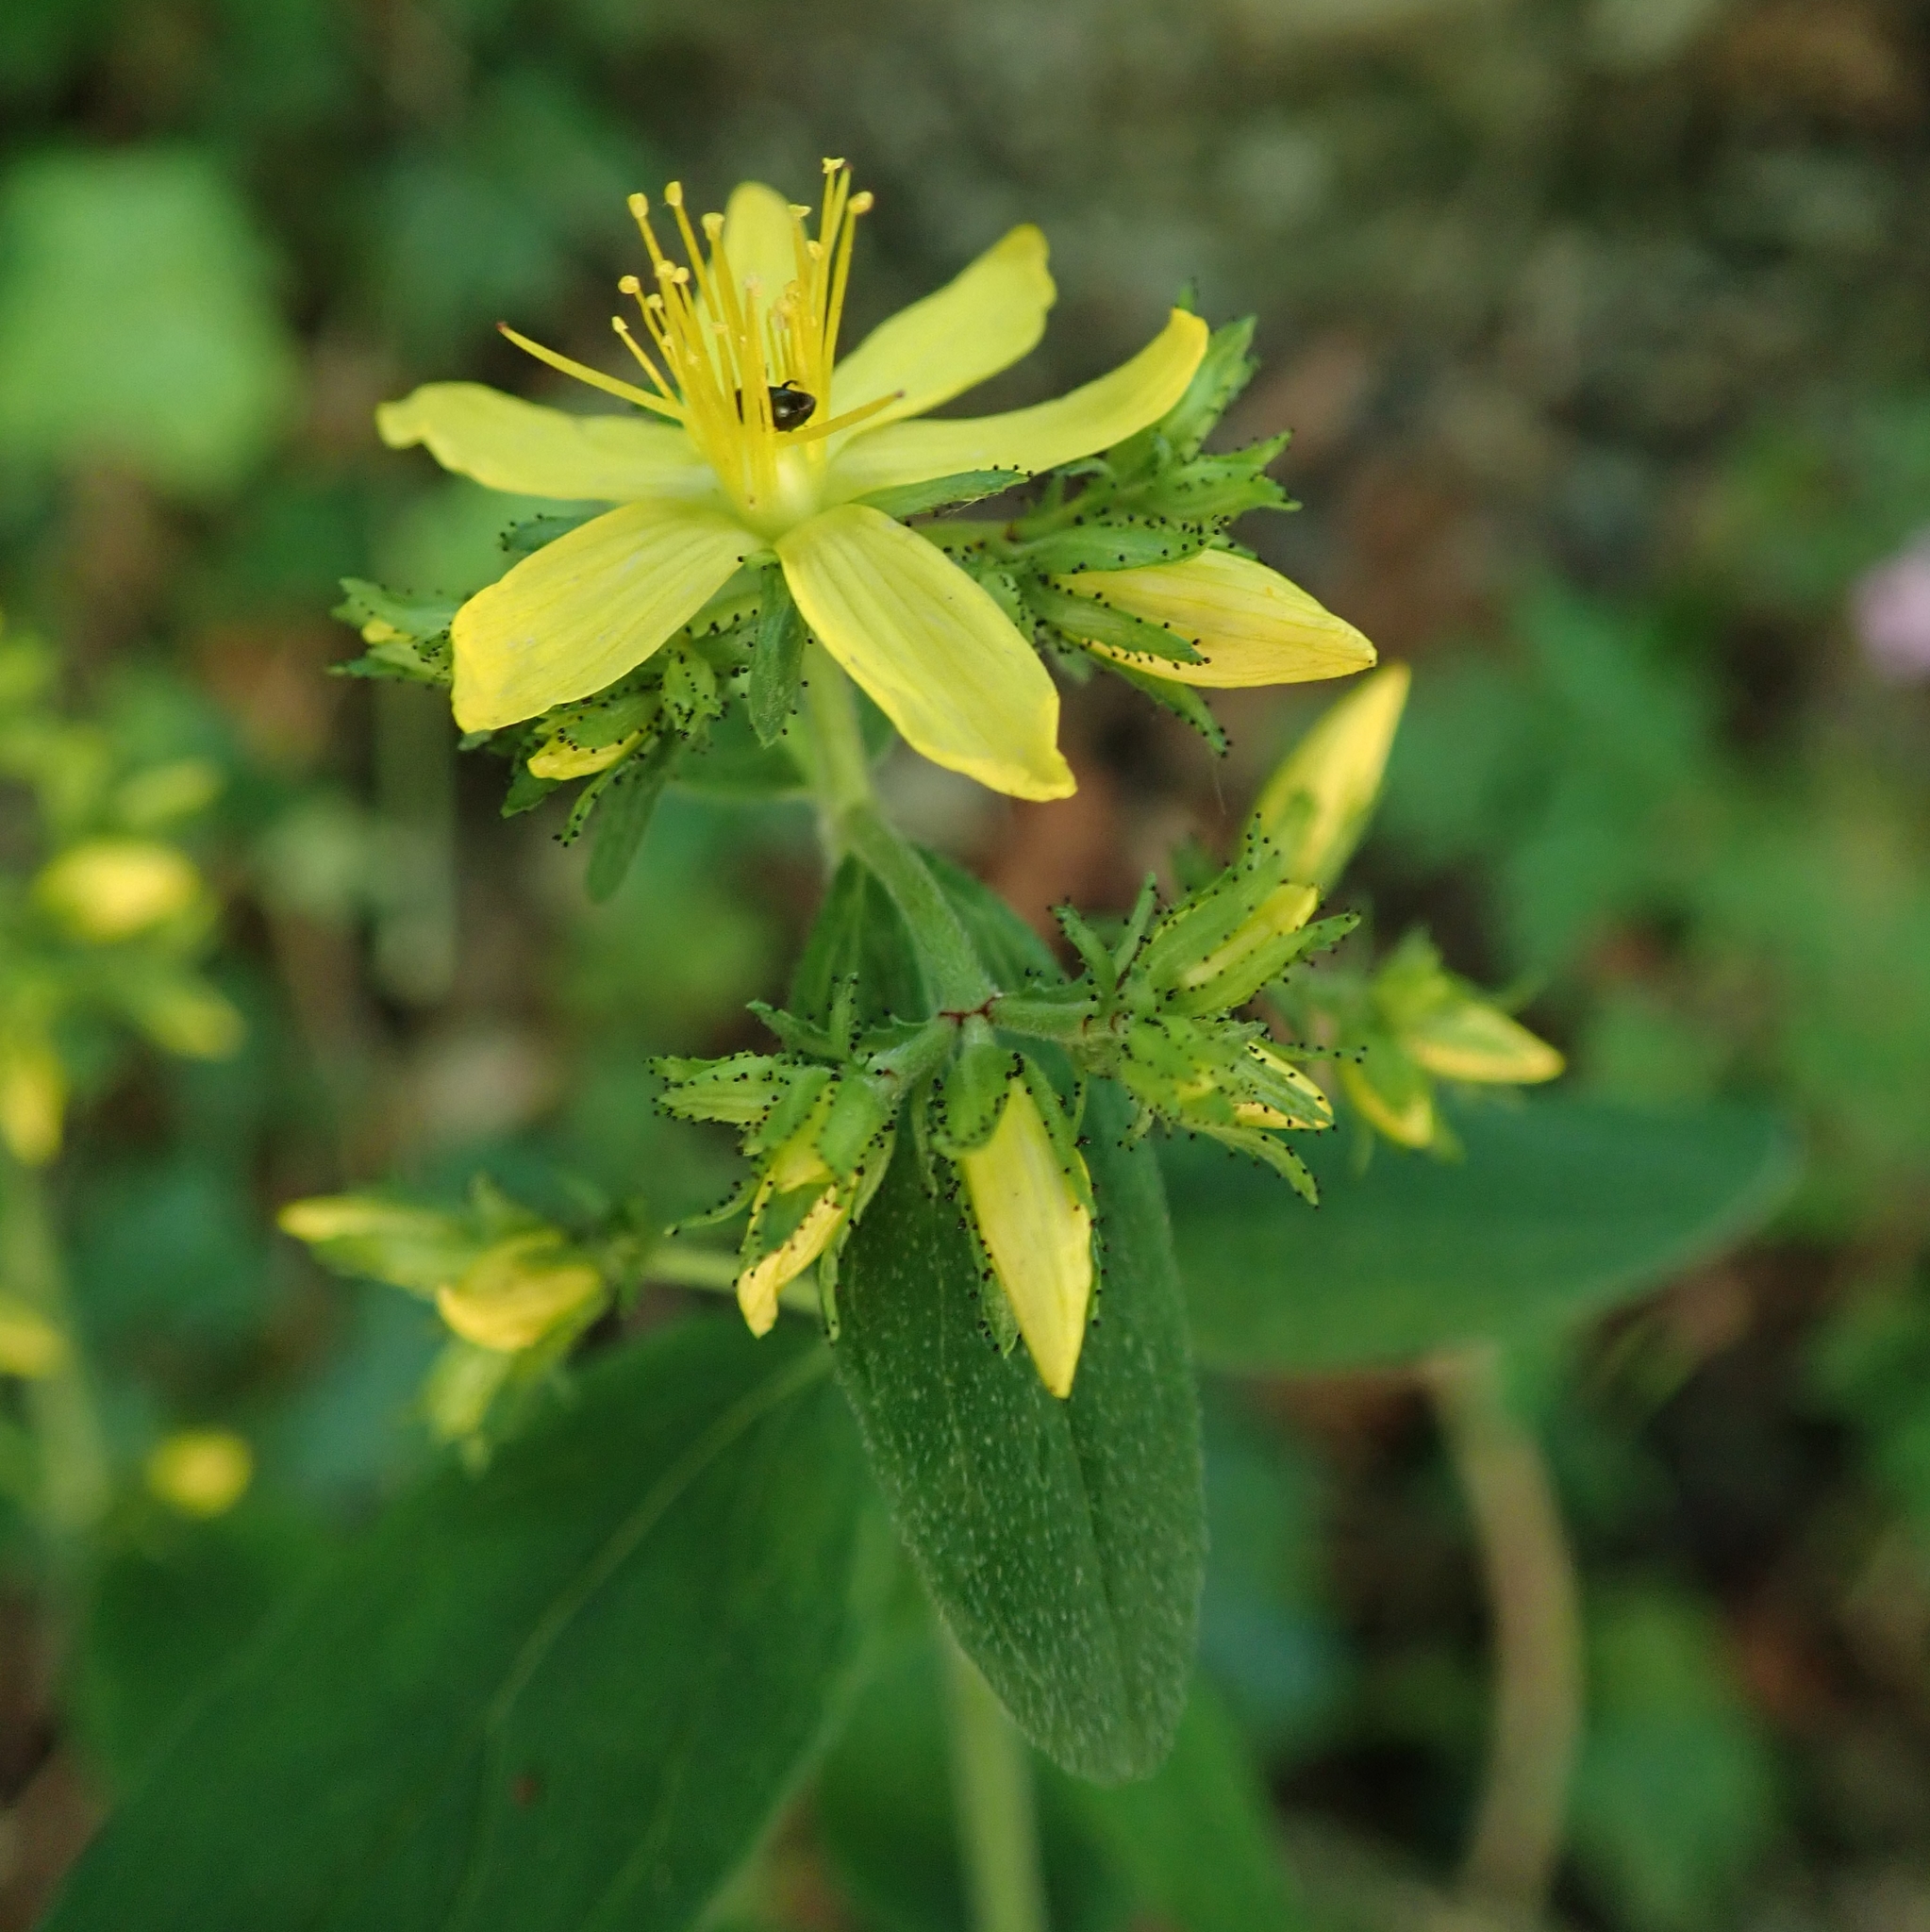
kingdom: Plantae
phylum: Tracheophyta
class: Magnoliopsida
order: Malpighiales
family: Hypericaceae
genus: Hypericum
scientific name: Hypericum hirsutum
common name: Hairy st. john's-wort
